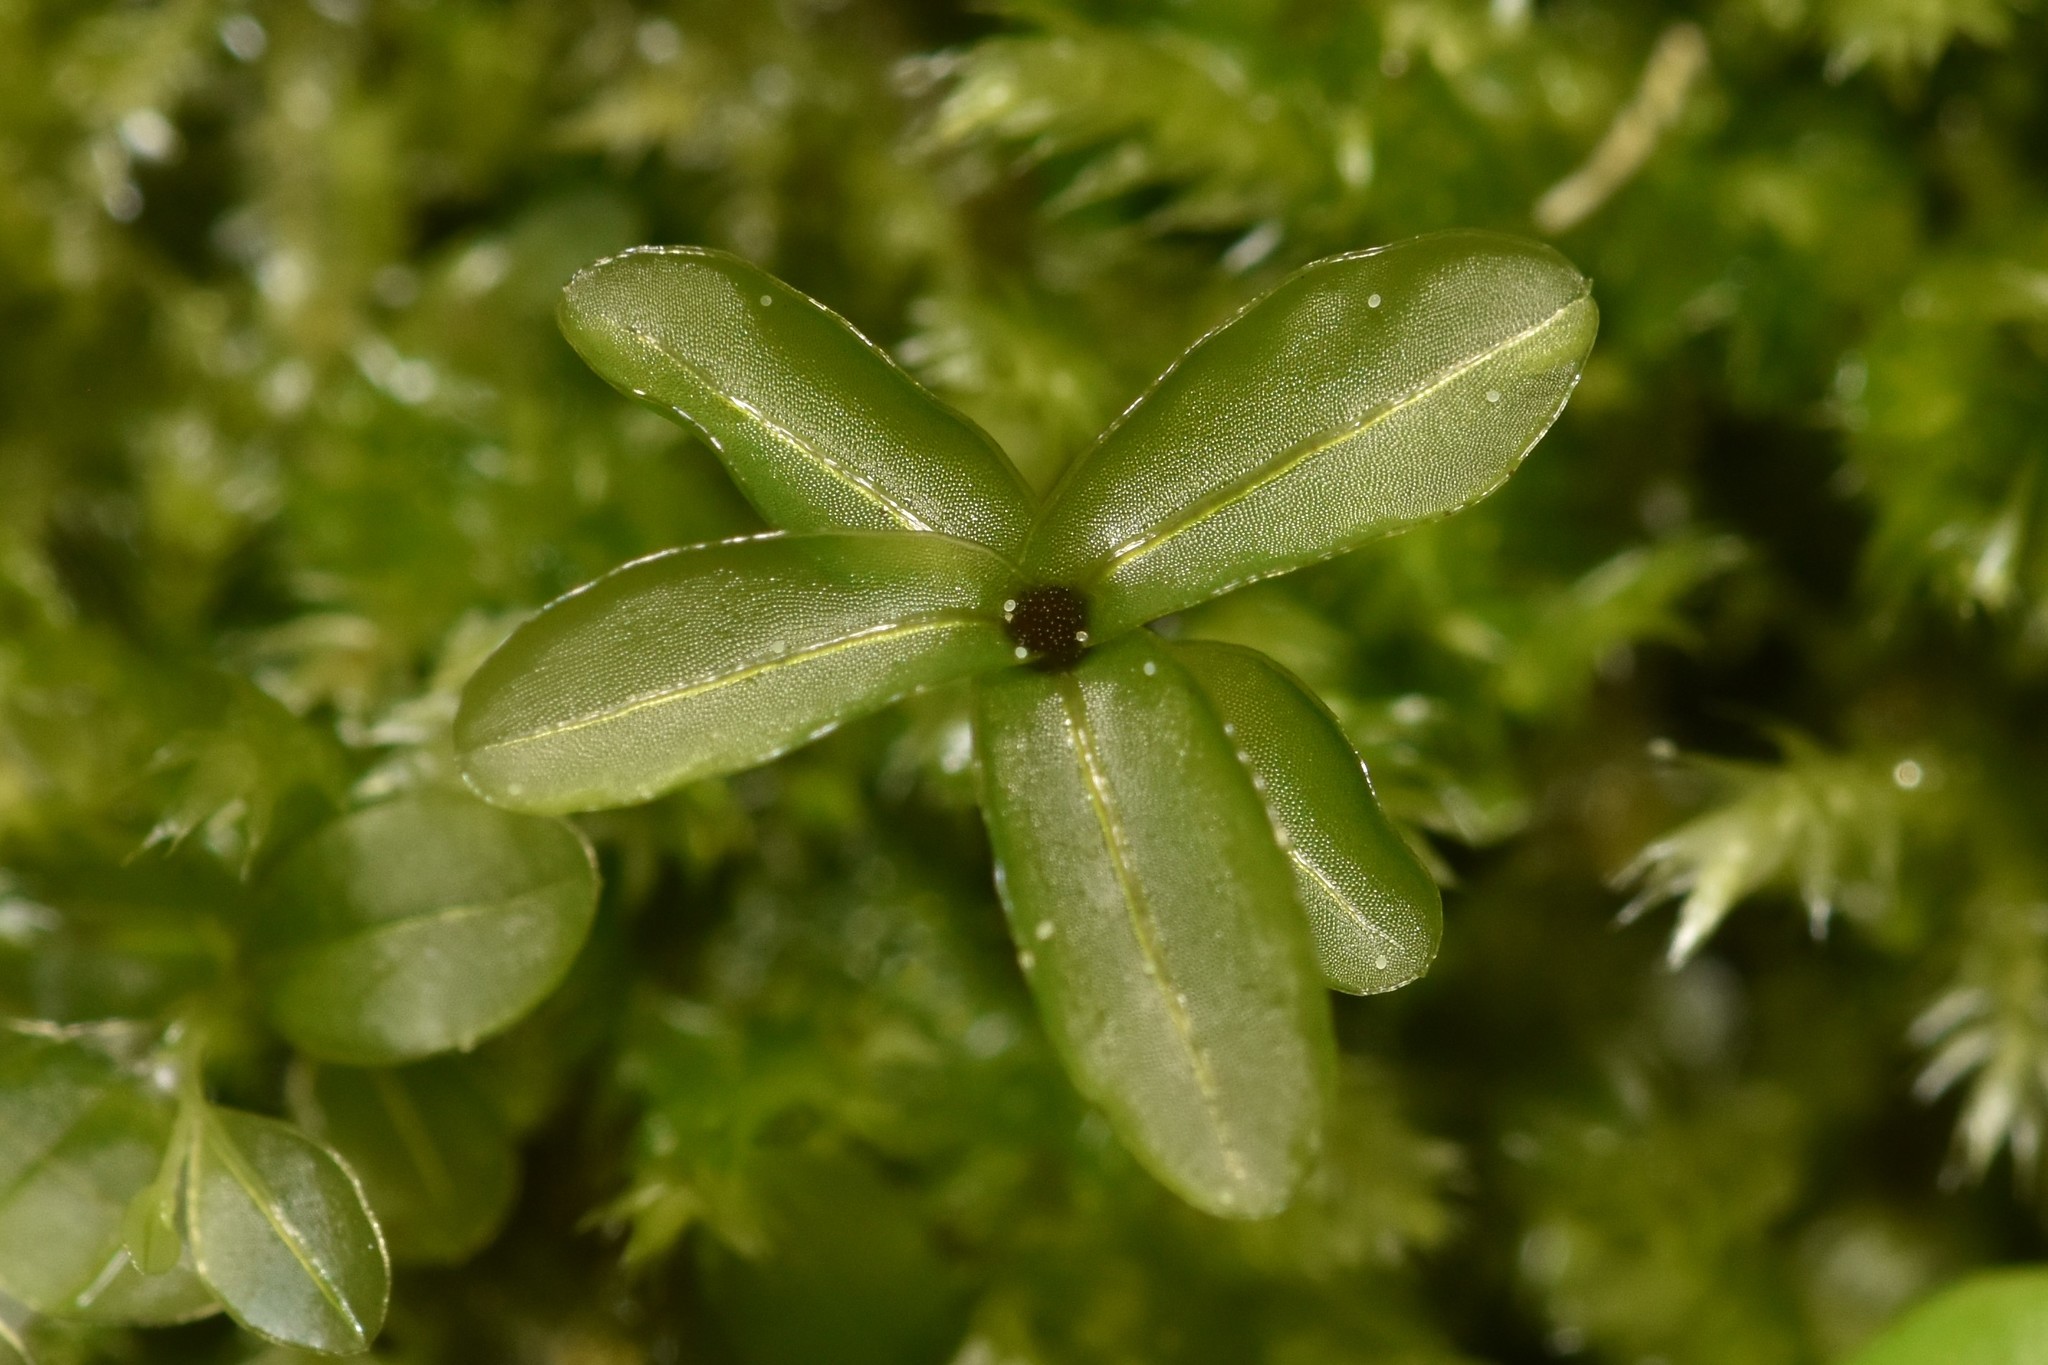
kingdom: Plantae
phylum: Bryophyta
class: Bryopsida
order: Bryales
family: Mniaceae
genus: Rhizomnium
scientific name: Rhizomnium glabrescens
